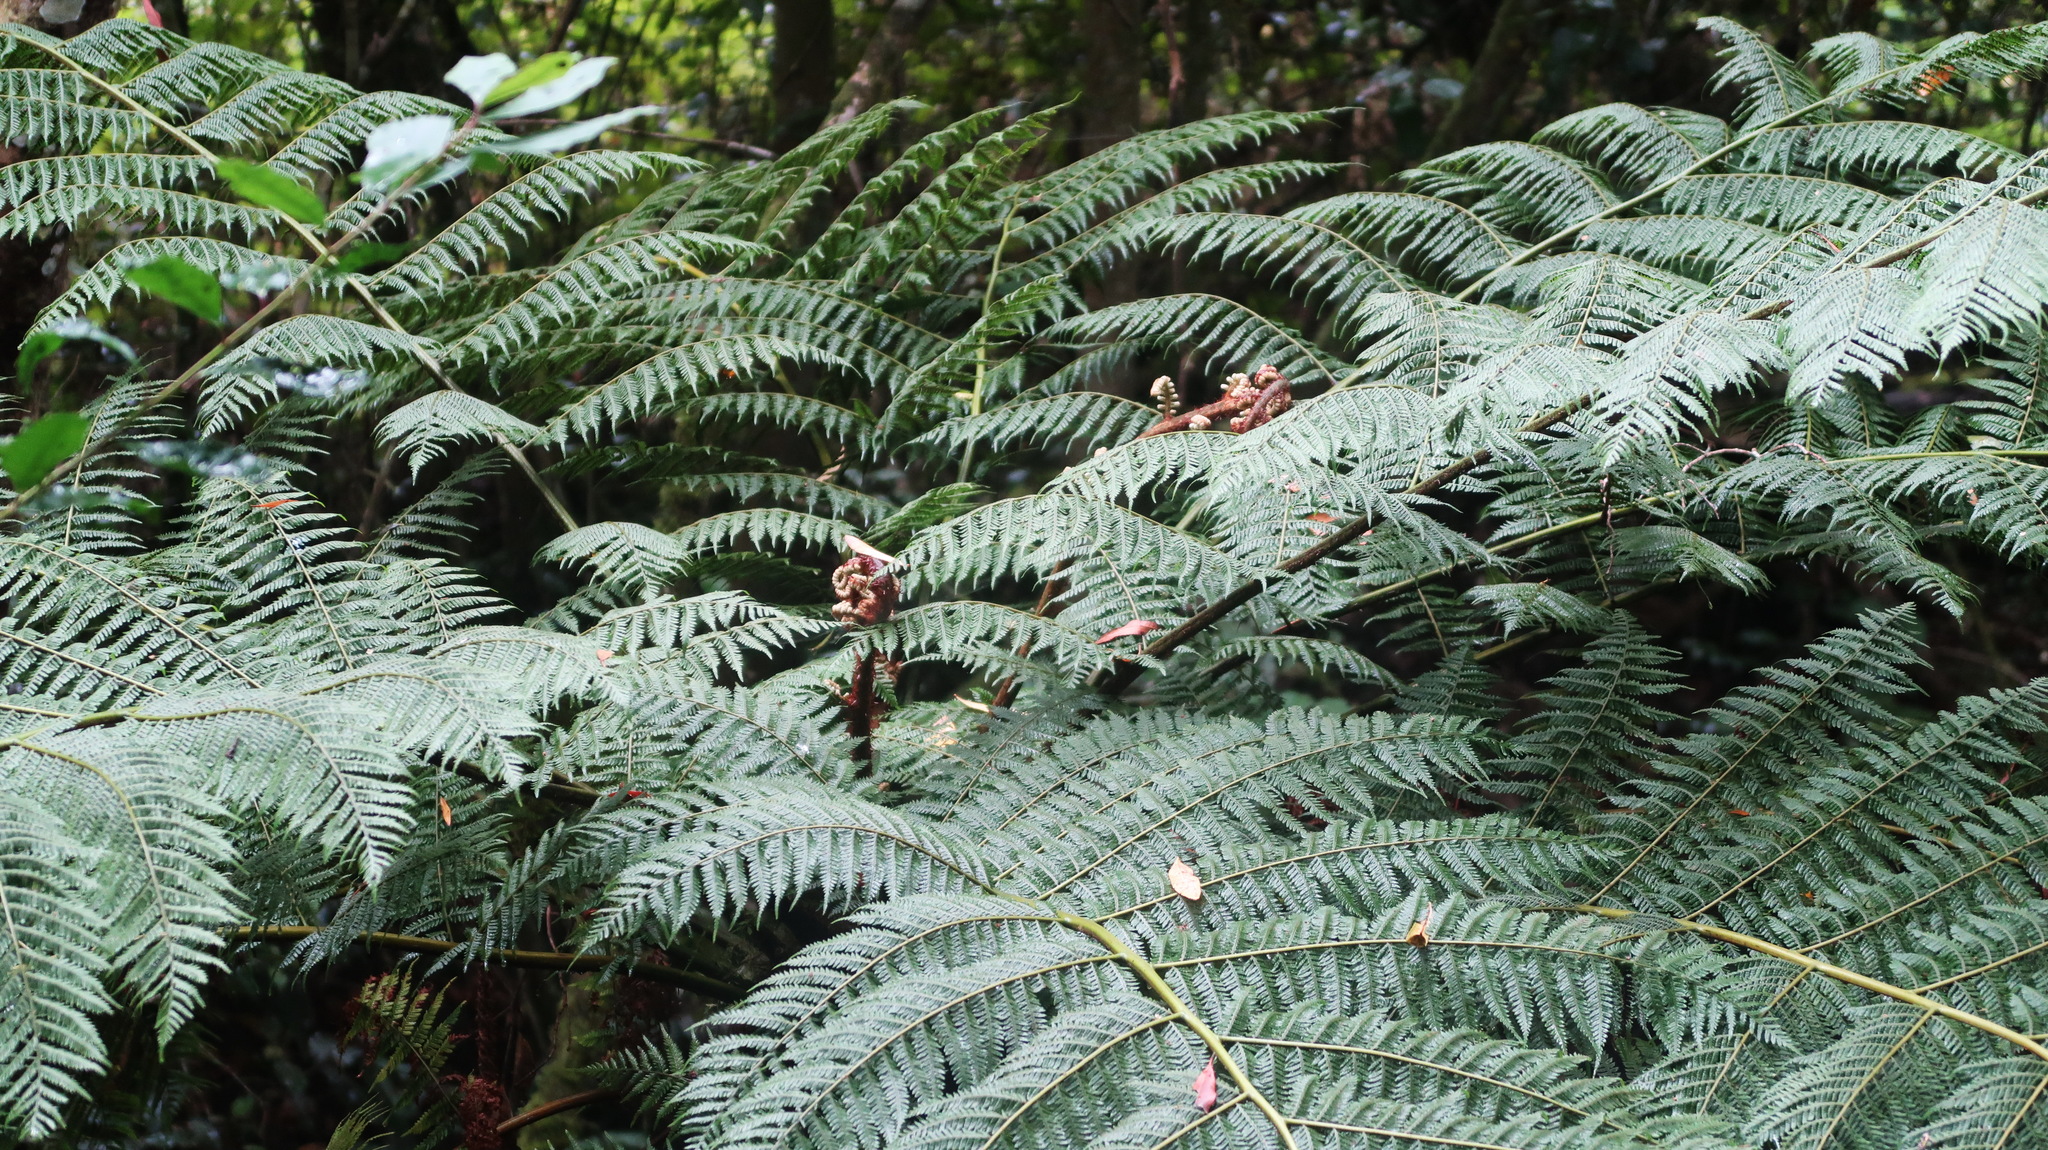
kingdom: Plantae
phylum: Tracheophyta
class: Polypodiopsida
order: Cyatheales
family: Cyatheaceae
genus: Gymnosphaera
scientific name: Gymnosphaera capensis
